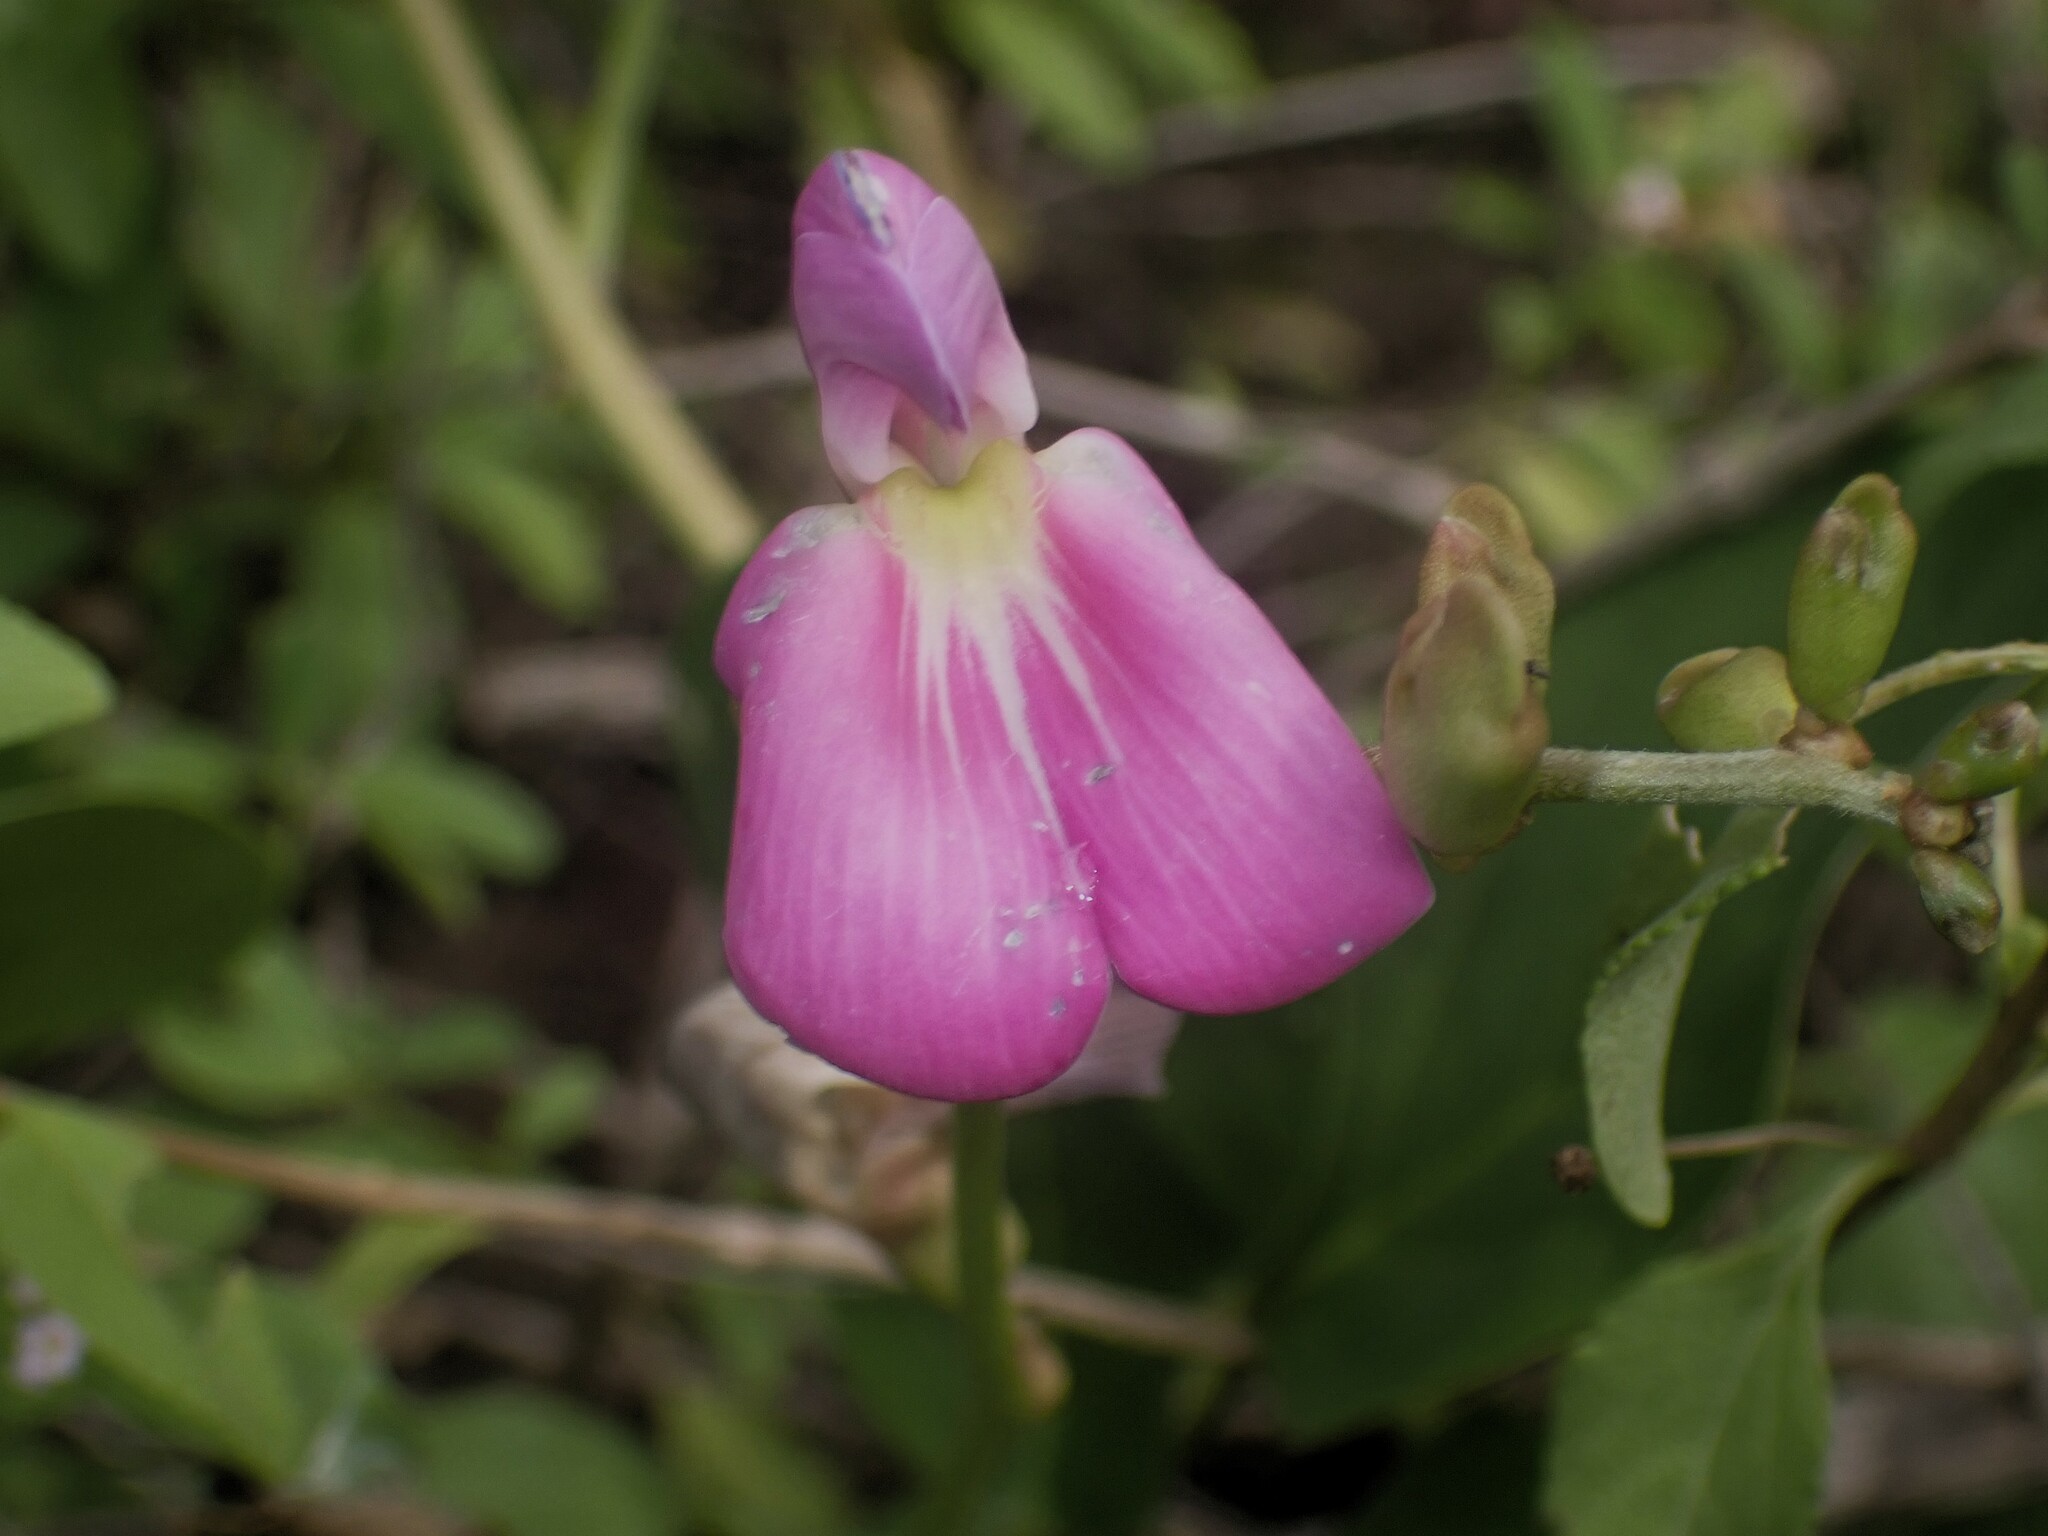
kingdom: Plantae
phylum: Tracheophyta
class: Magnoliopsida
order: Fabales
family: Fabaceae
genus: Canavalia
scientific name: Canavalia rosea
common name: Beach-bean
